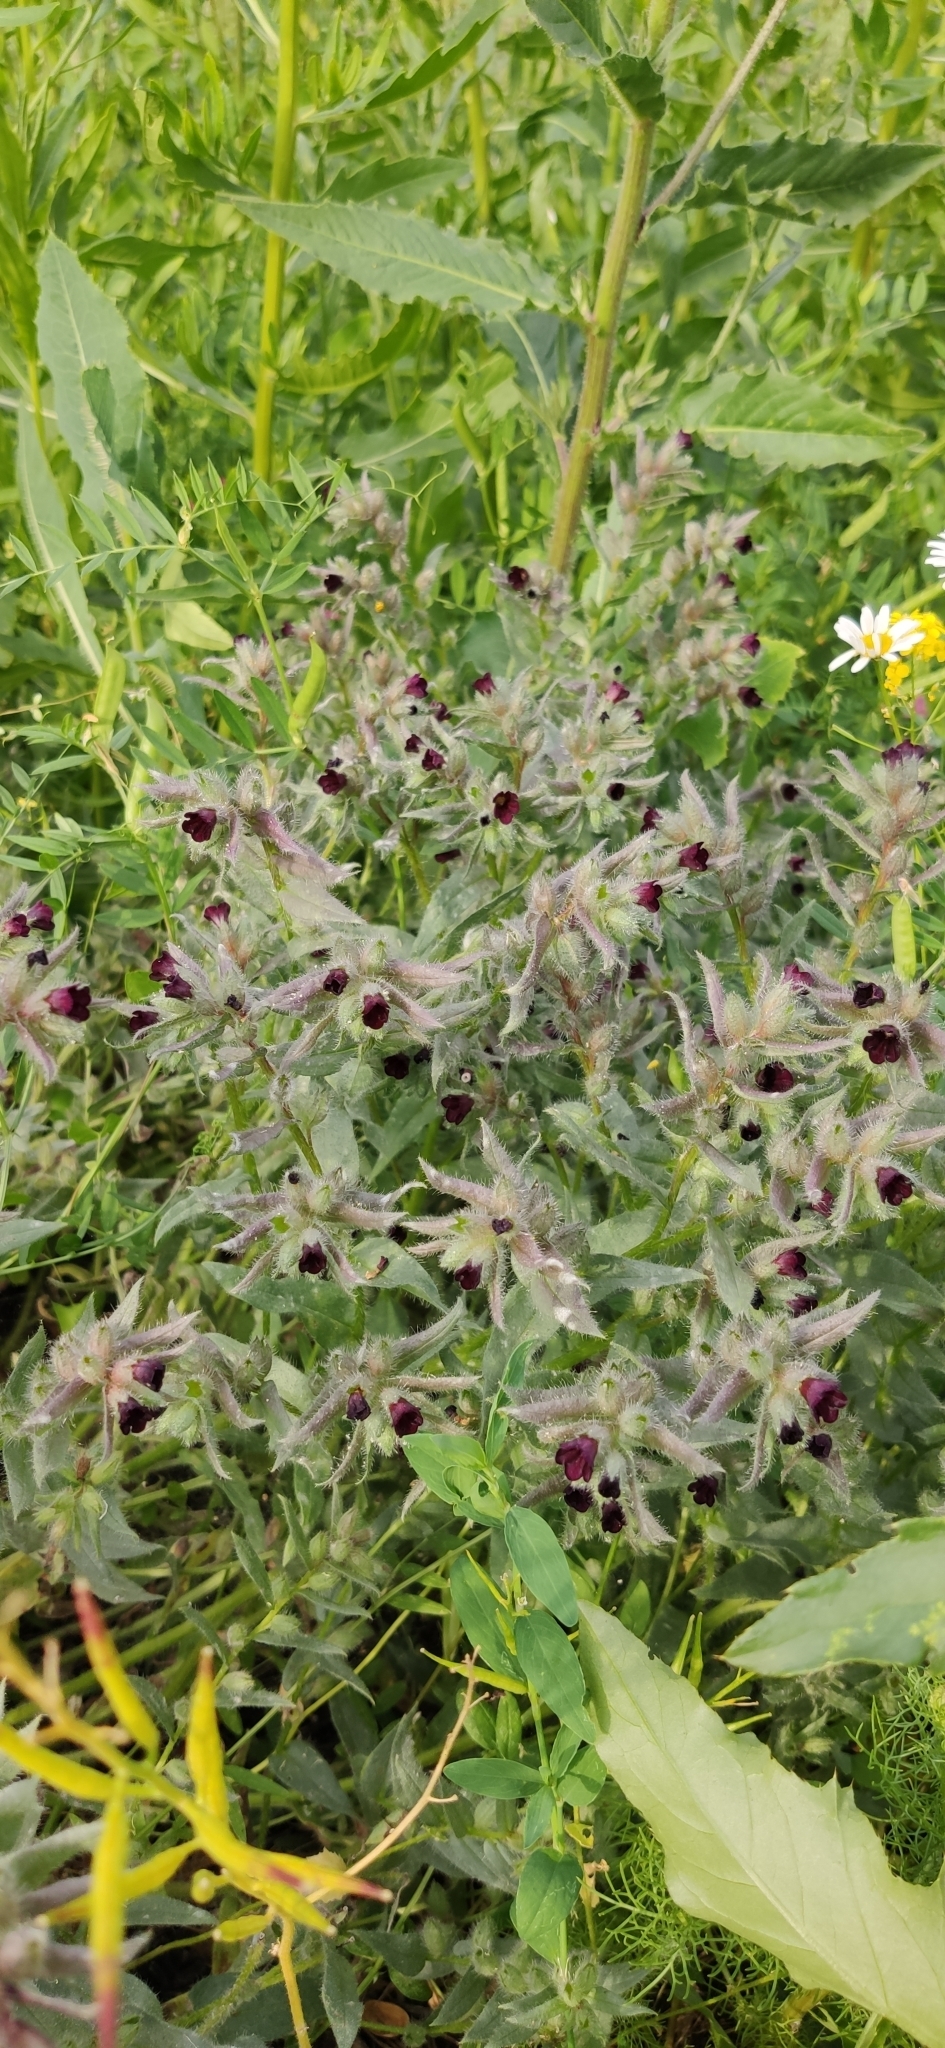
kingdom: Plantae
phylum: Tracheophyta
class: Magnoliopsida
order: Boraginales
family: Boraginaceae
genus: Nonea
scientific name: Nonea pulla
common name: Brown nonea
